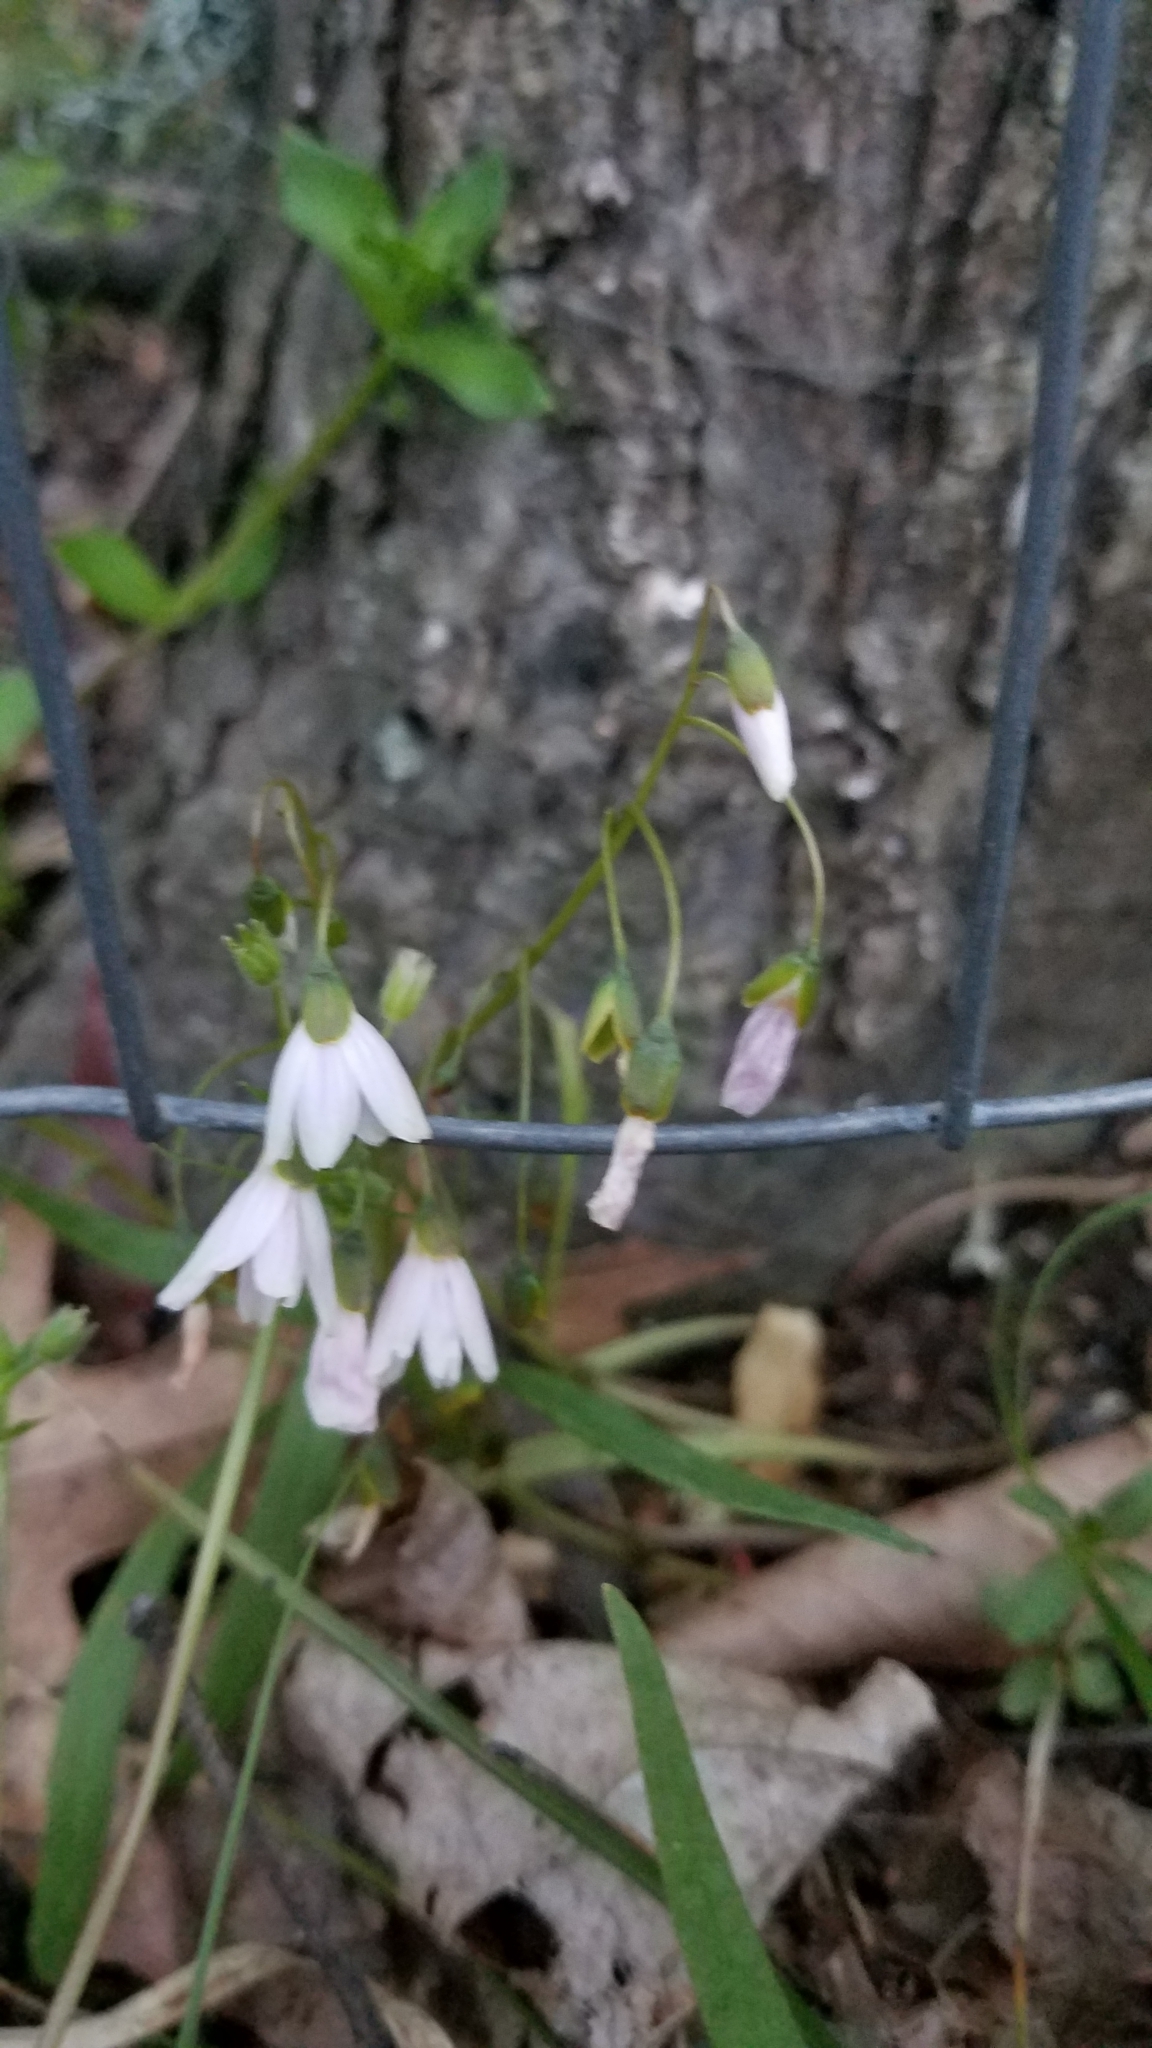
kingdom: Plantae
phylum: Tracheophyta
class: Magnoliopsida
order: Caryophyllales
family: Montiaceae
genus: Claytonia
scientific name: Claytonia virginica
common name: Virginia springbeauty
